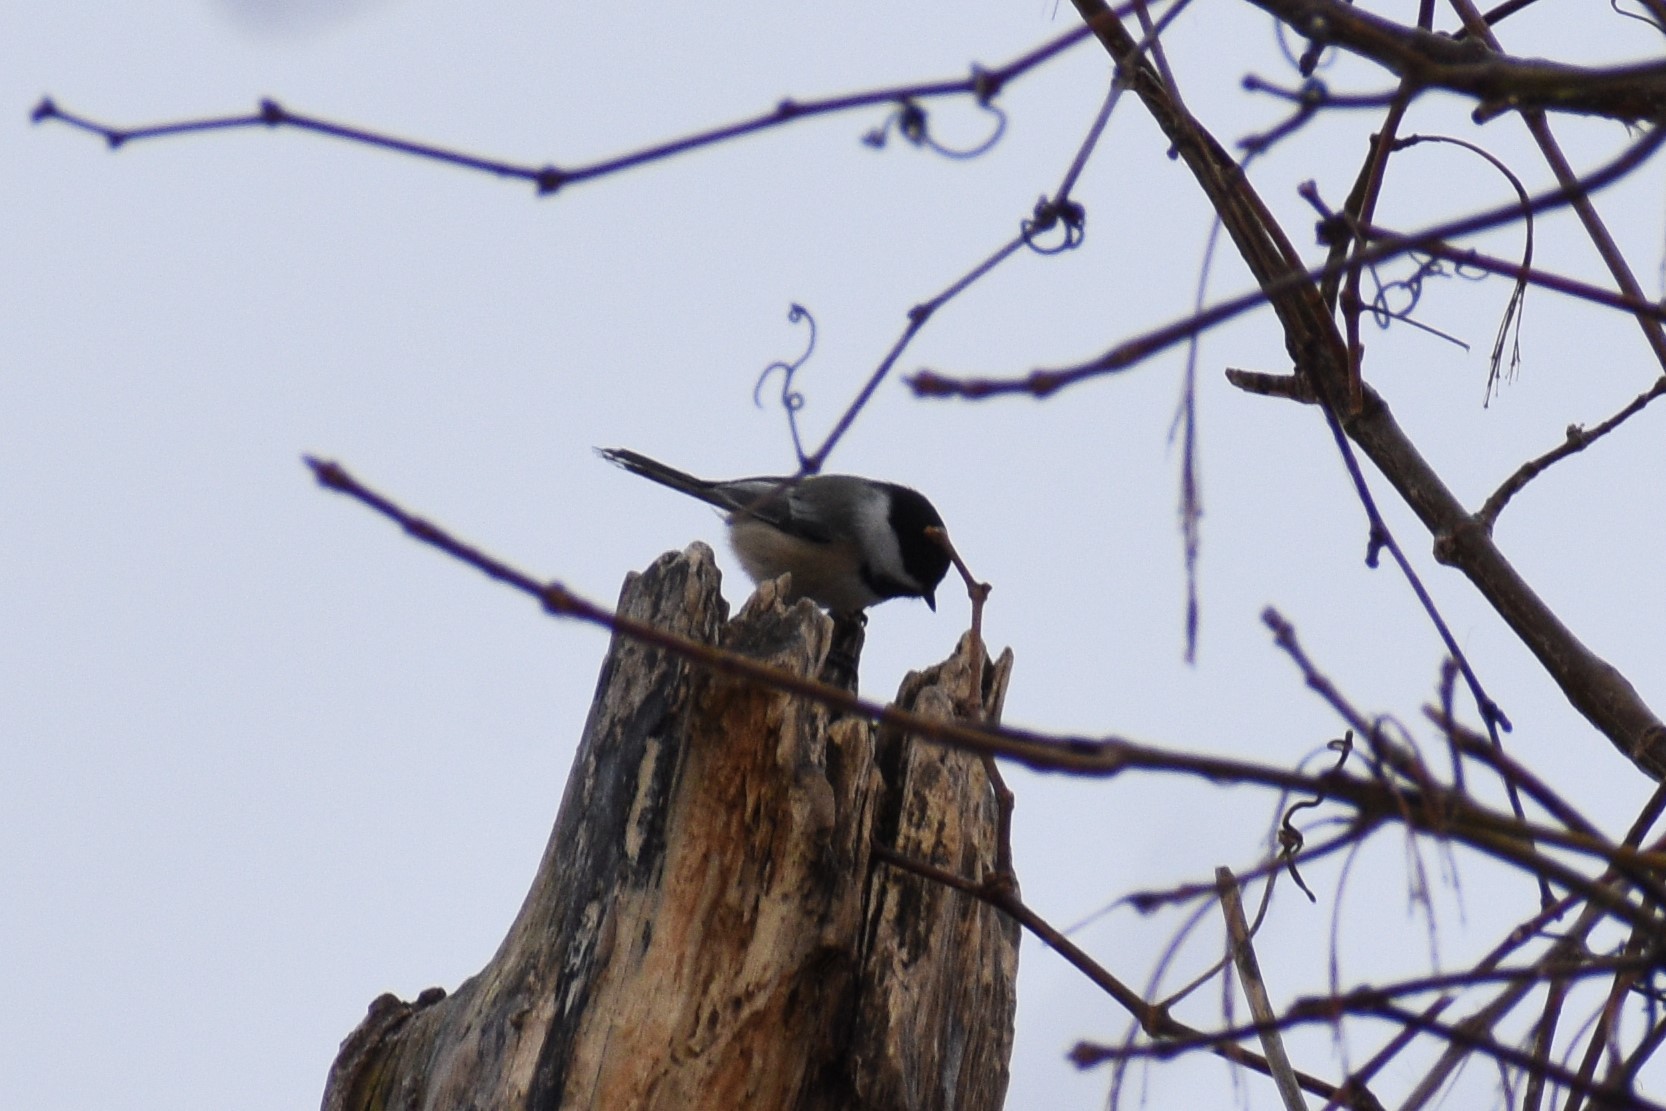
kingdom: Animalia
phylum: Chordata
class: Aves
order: Passeriformes
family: Paridae
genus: Poecile
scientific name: Poecile atricapillus
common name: Black-capped chickadee
